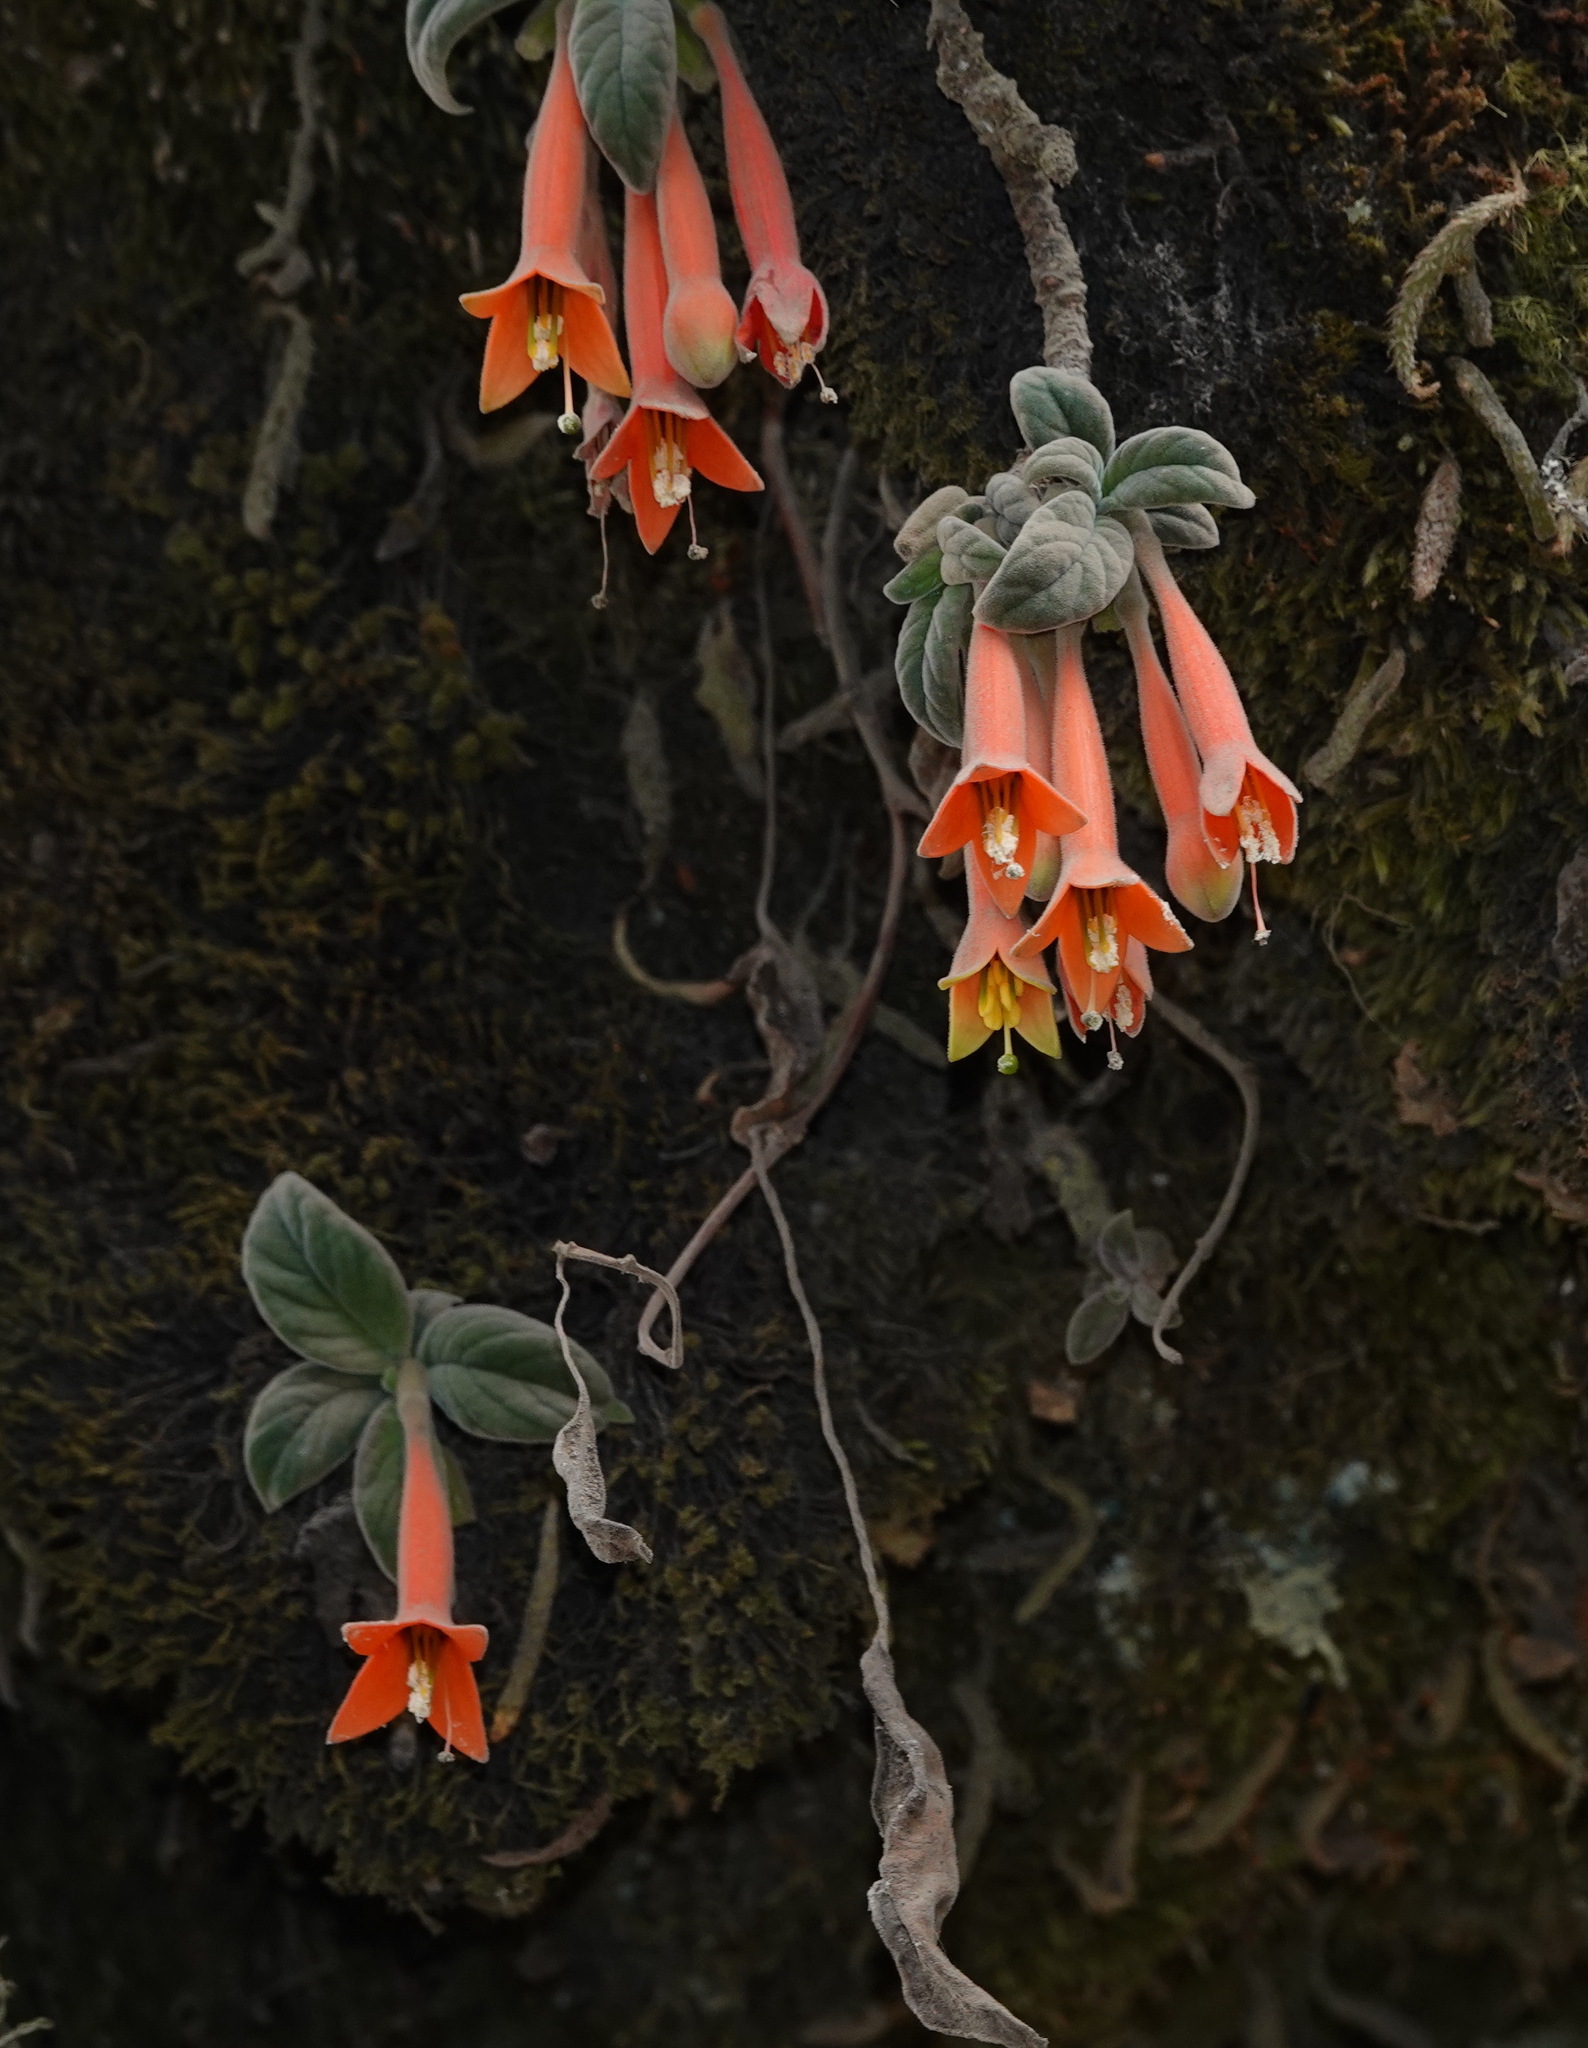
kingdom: Plantae
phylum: Tracheophyta
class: Magnoliopsida
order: Myrtales
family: Onagraceae
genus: Fuchsia
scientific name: Fuchsia apetala
